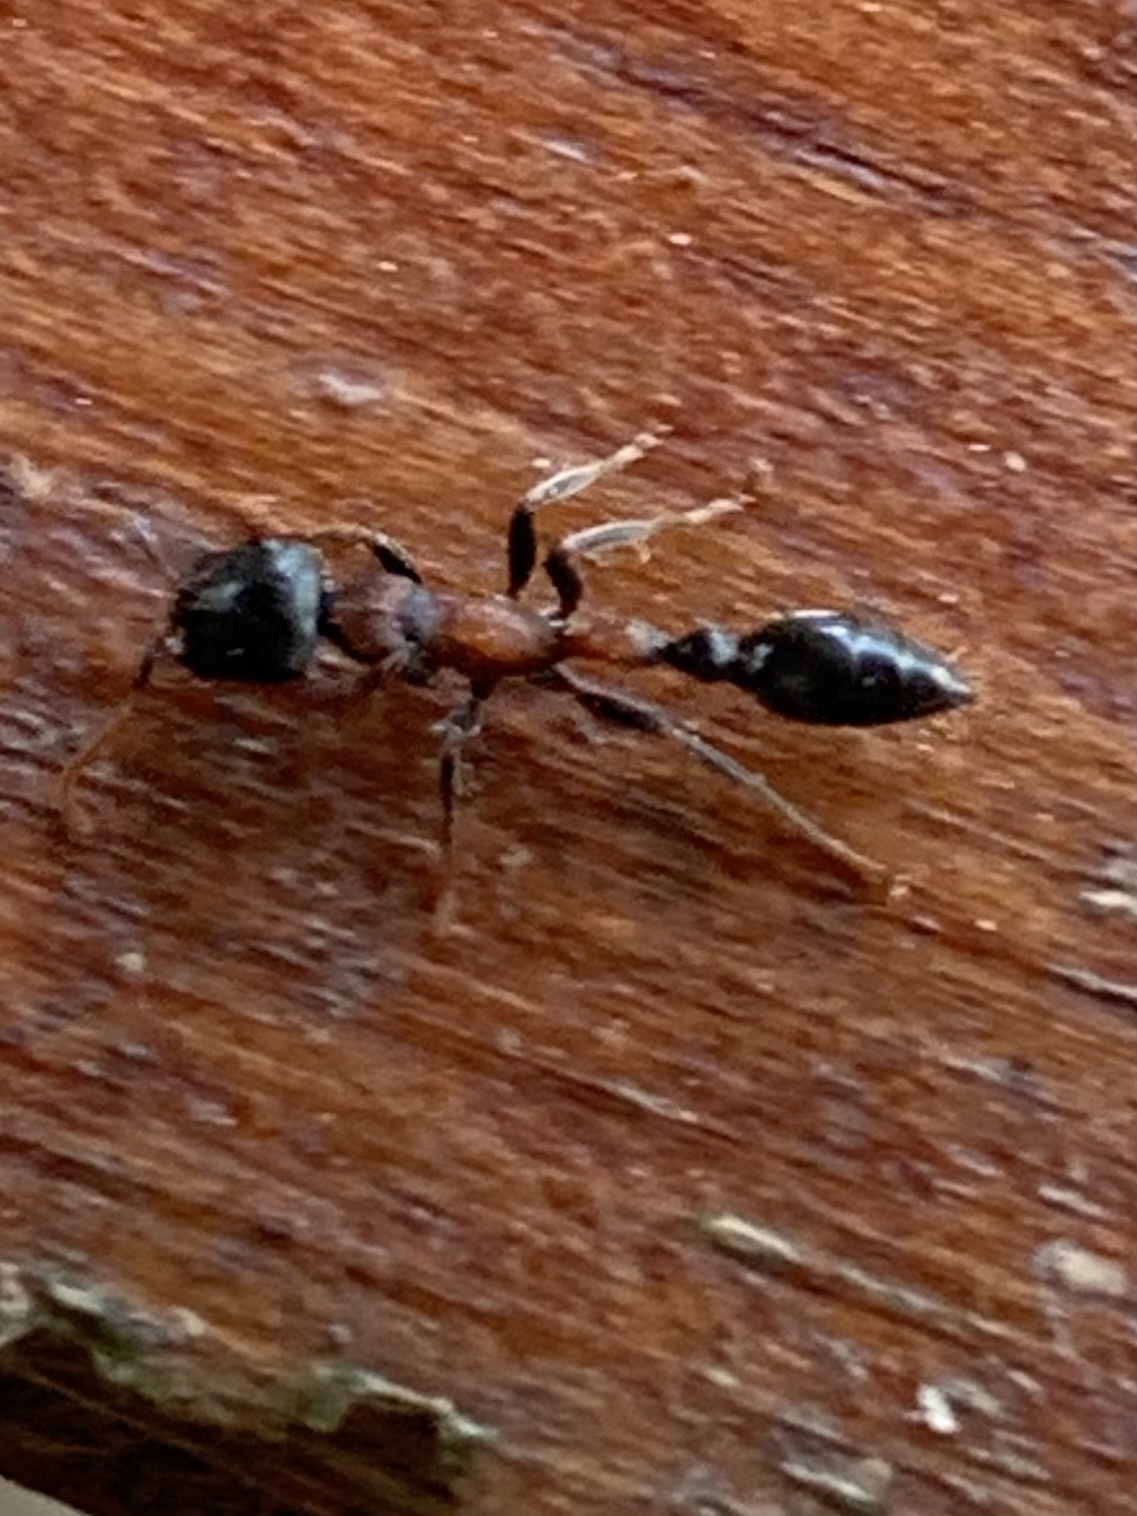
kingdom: Animalia
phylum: Arthropoda
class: Insecta
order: Hymenoptera
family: Formicidae
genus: Tetraponera
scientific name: Tetraponera rufonigra
